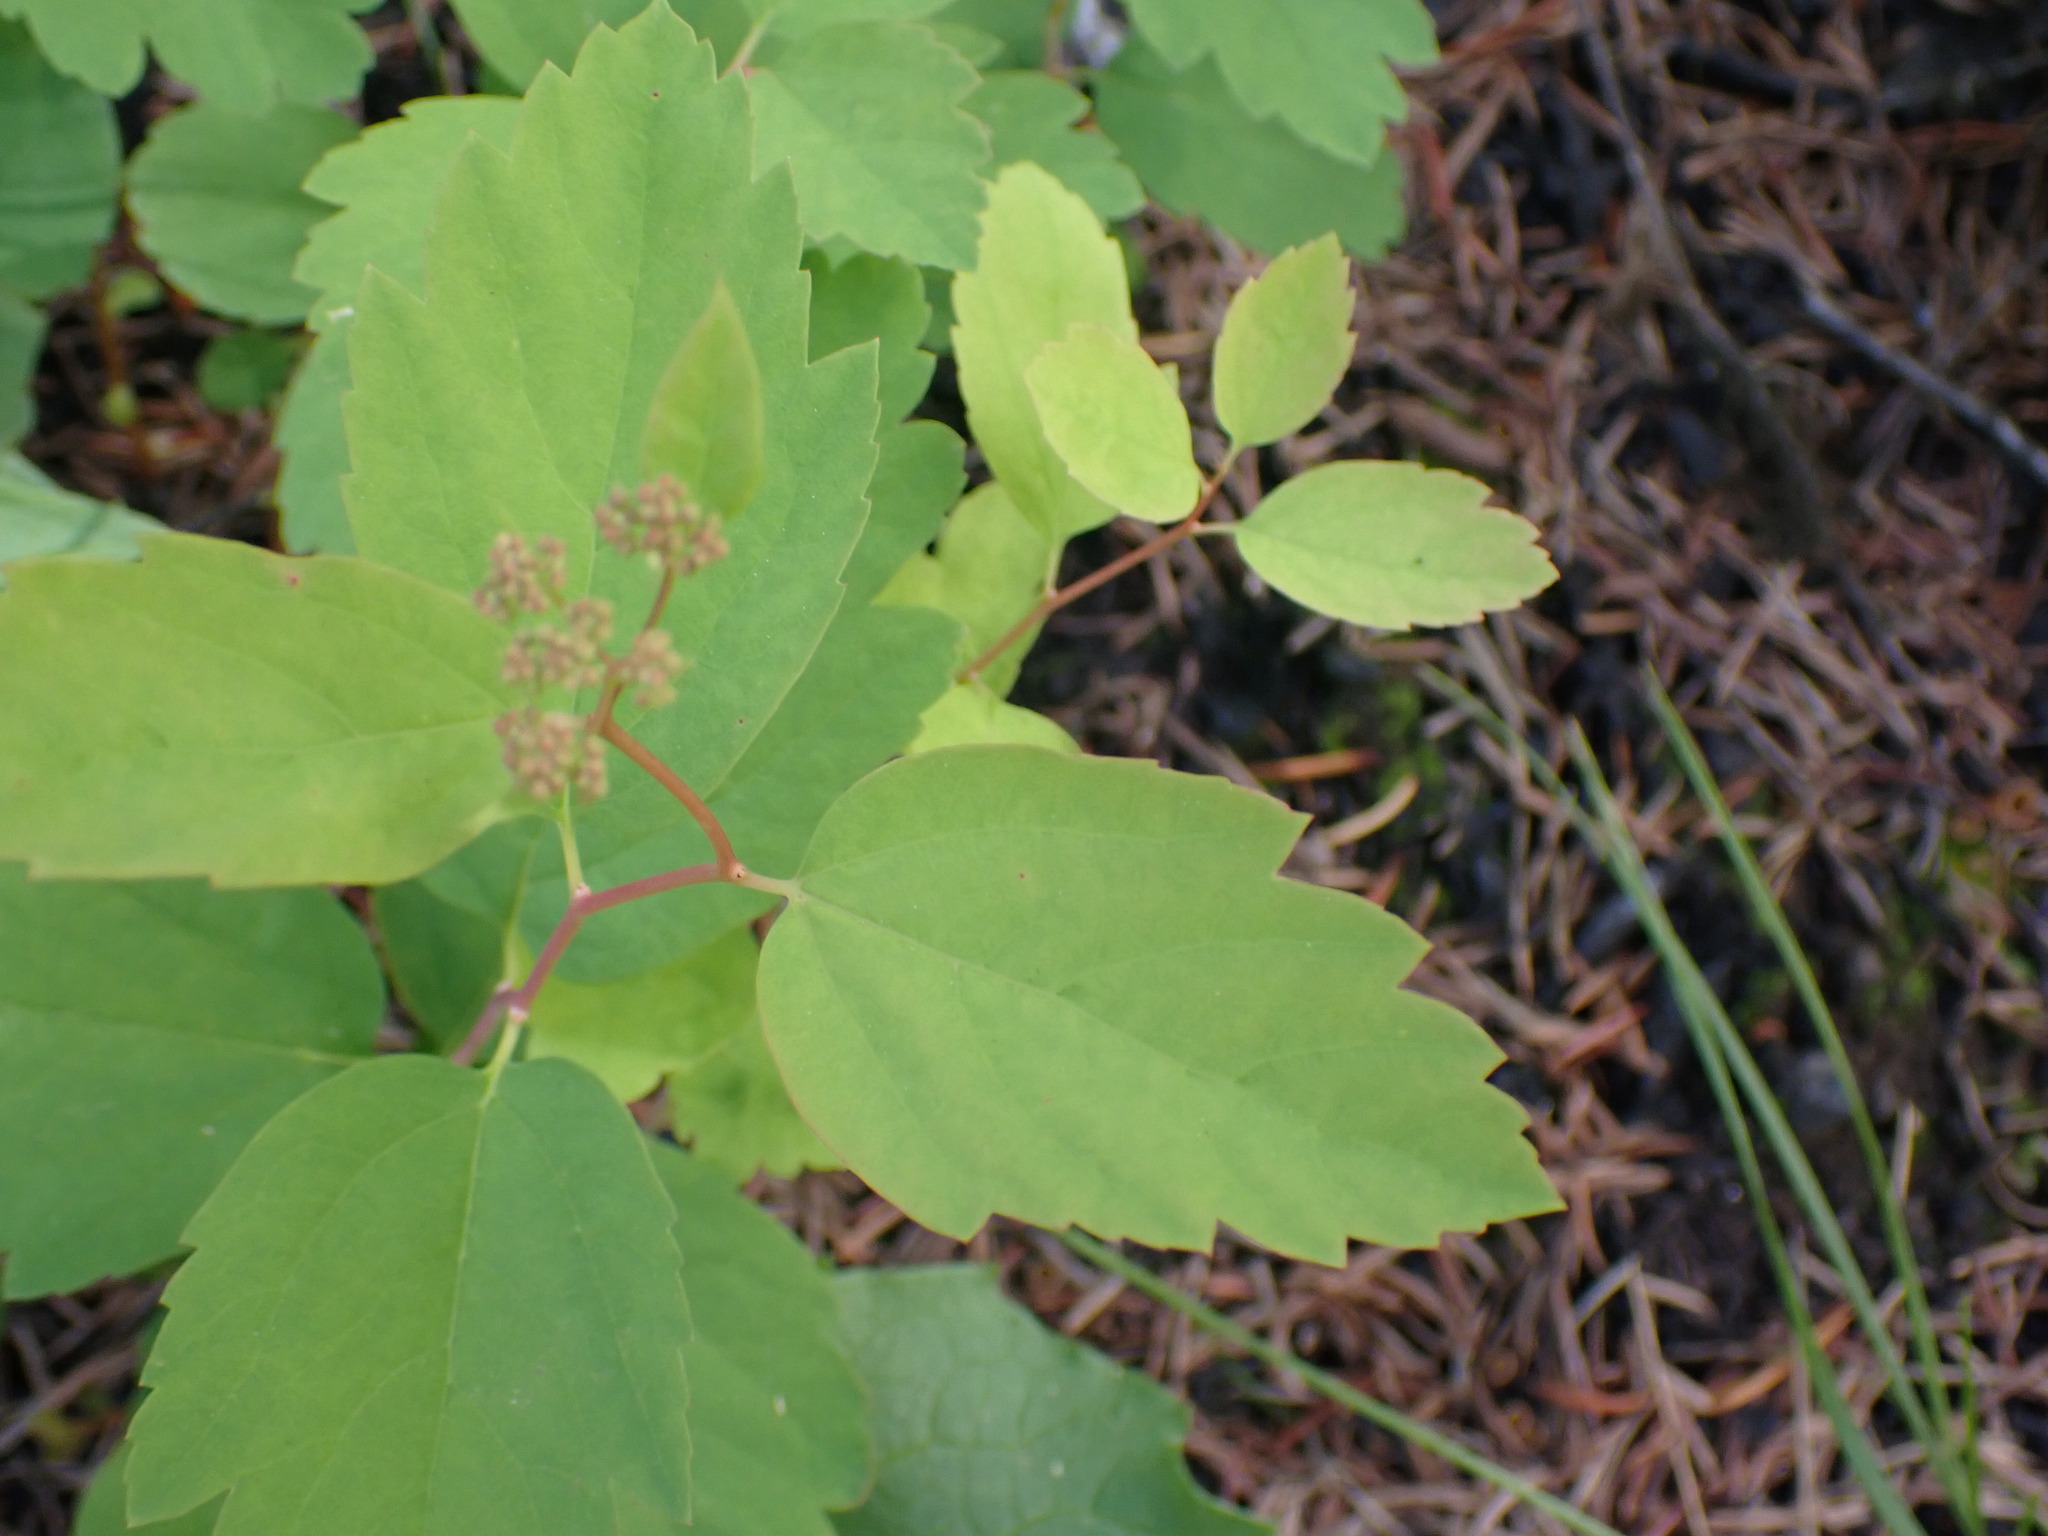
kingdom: Plantae
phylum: Tracheophyta
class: Magnoliopsida
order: Rosales
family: Rosaceae
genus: Spiraea
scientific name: Spiraea lucida
